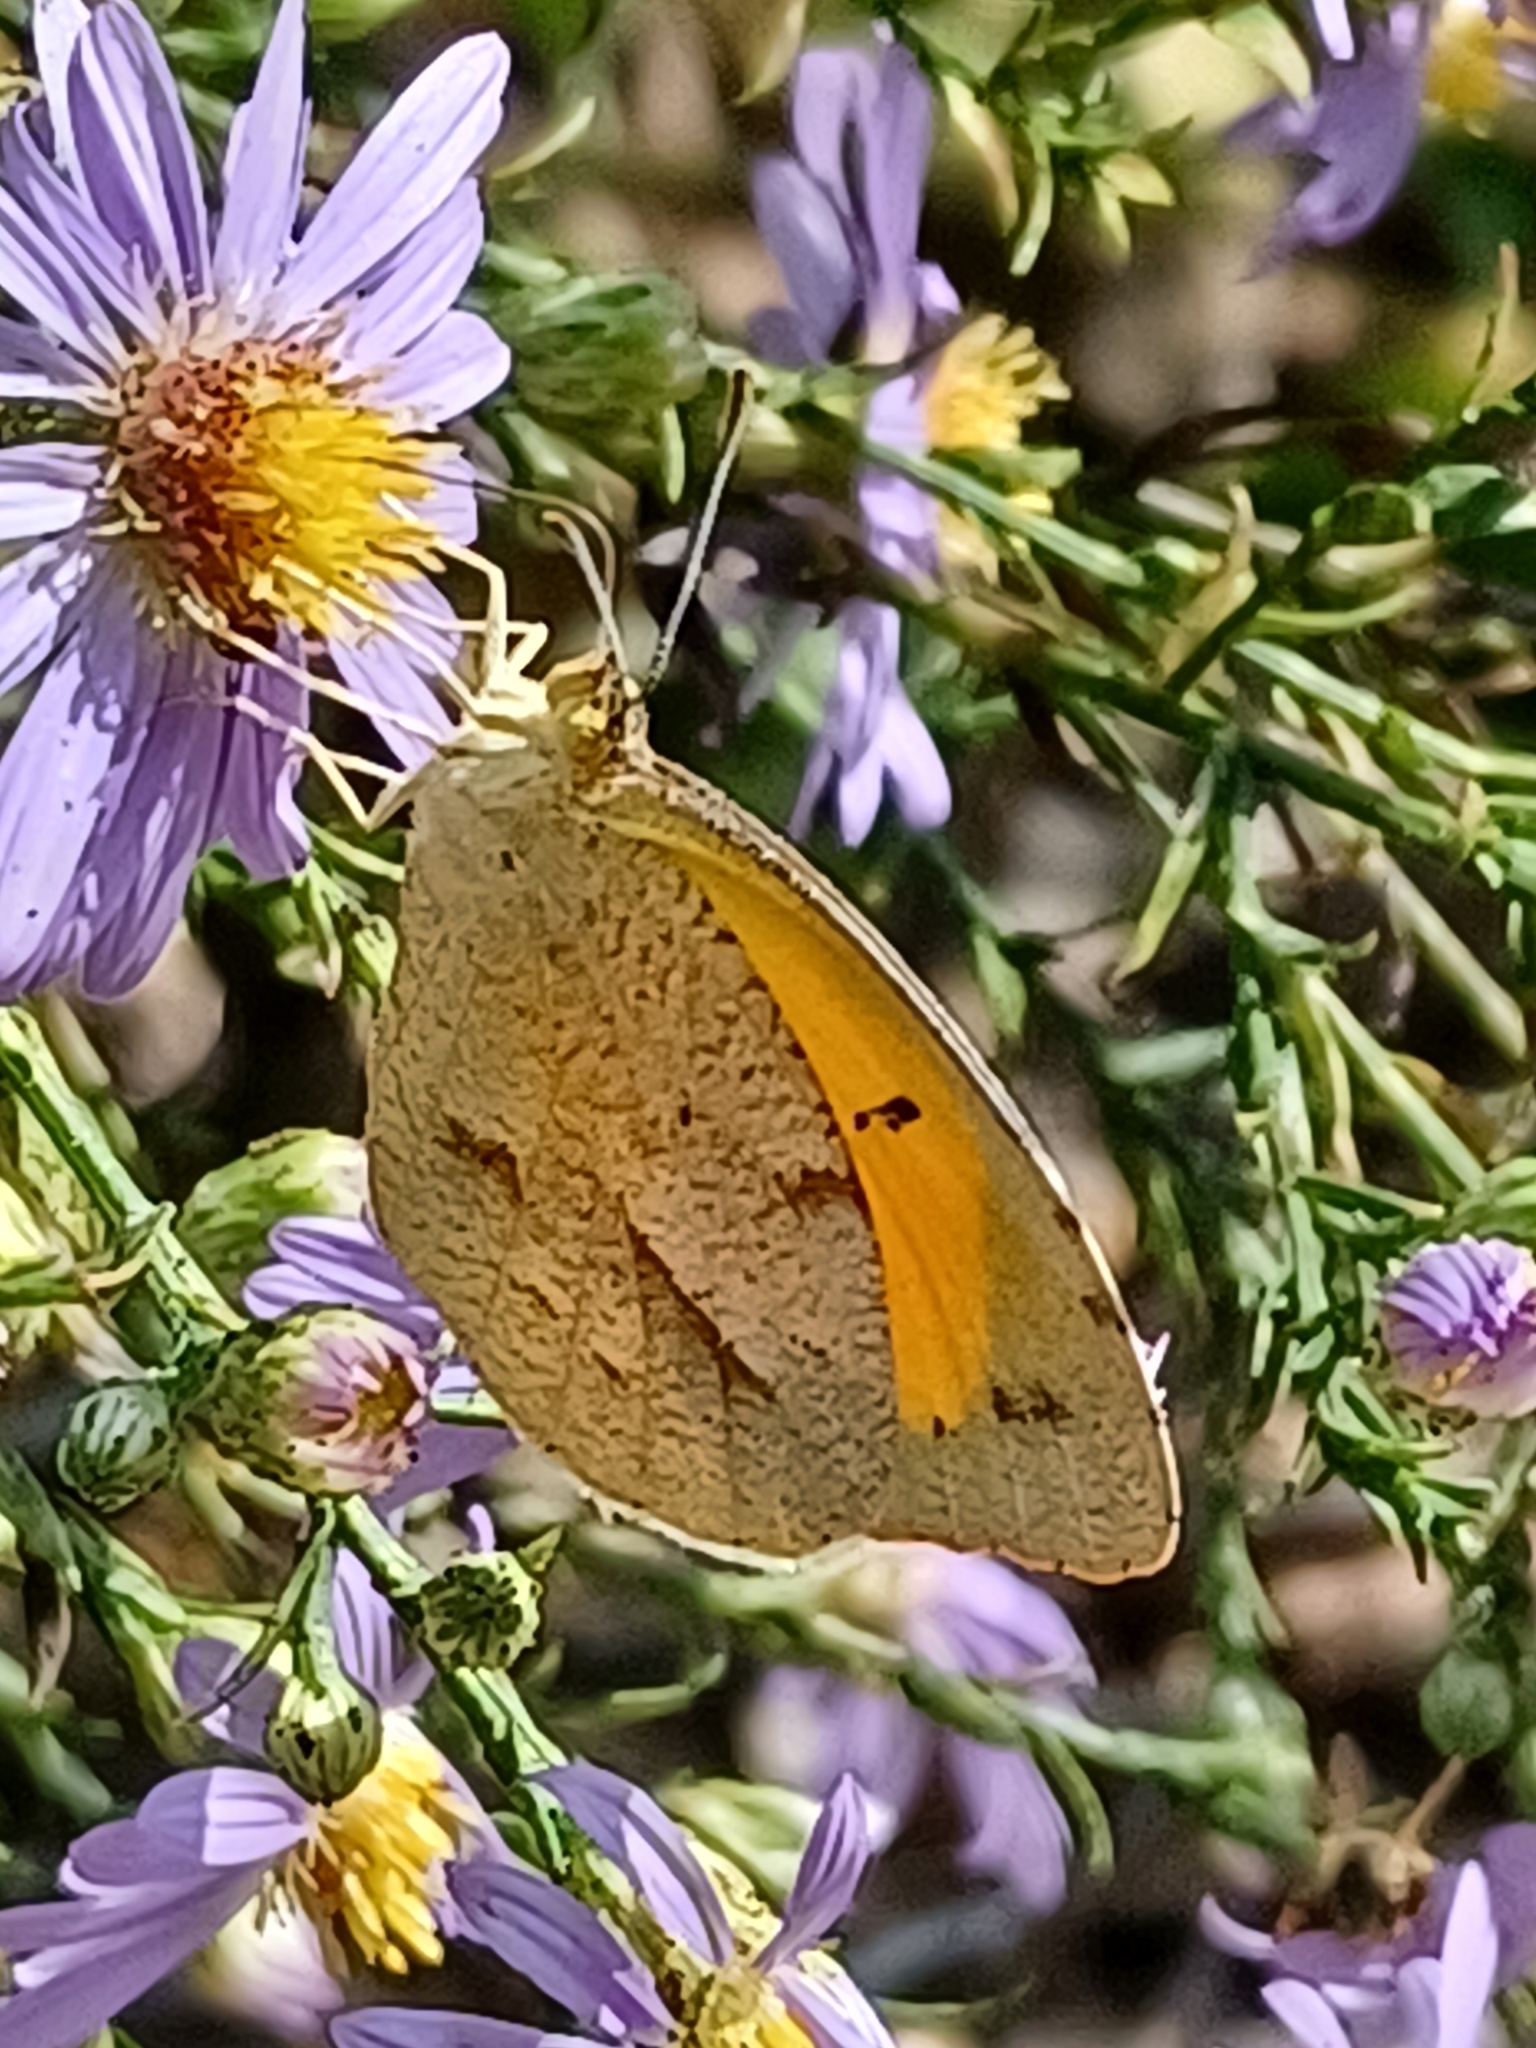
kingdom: Animalia
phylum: Arthropoda
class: Insecta
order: Lepidoptera
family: Pieridae
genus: Abaeis
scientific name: Abaeis nicippe
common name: Sleepy orange
